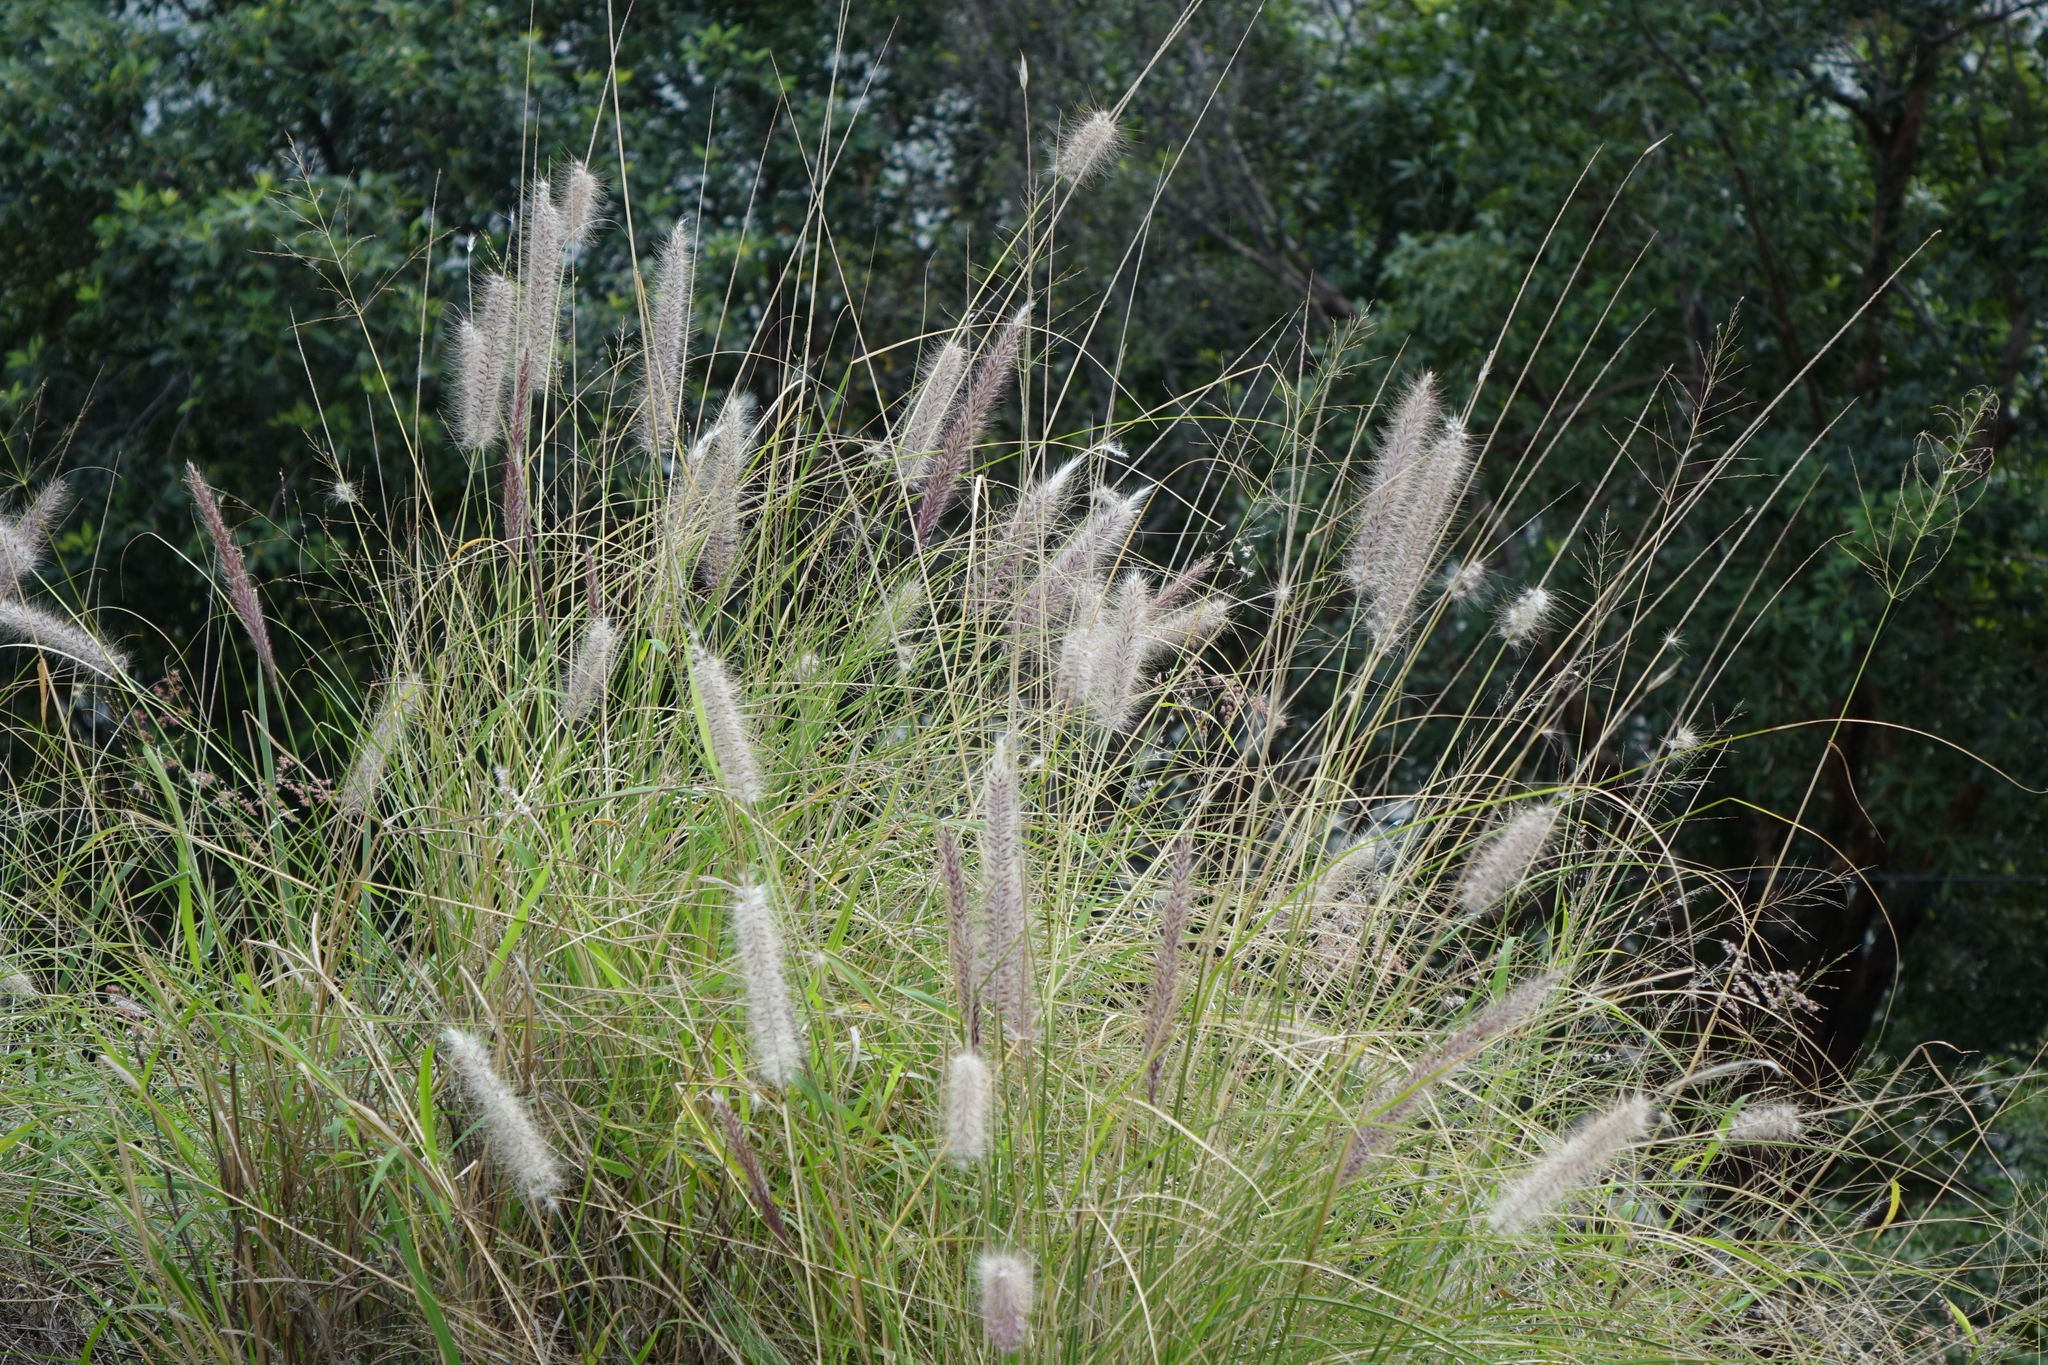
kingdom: Plantae
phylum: Tracheophyta
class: Liliopsida
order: Poales
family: Poaceae
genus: Cenchrus
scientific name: Cenchrus setaceus
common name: Crimson fountaingrass
